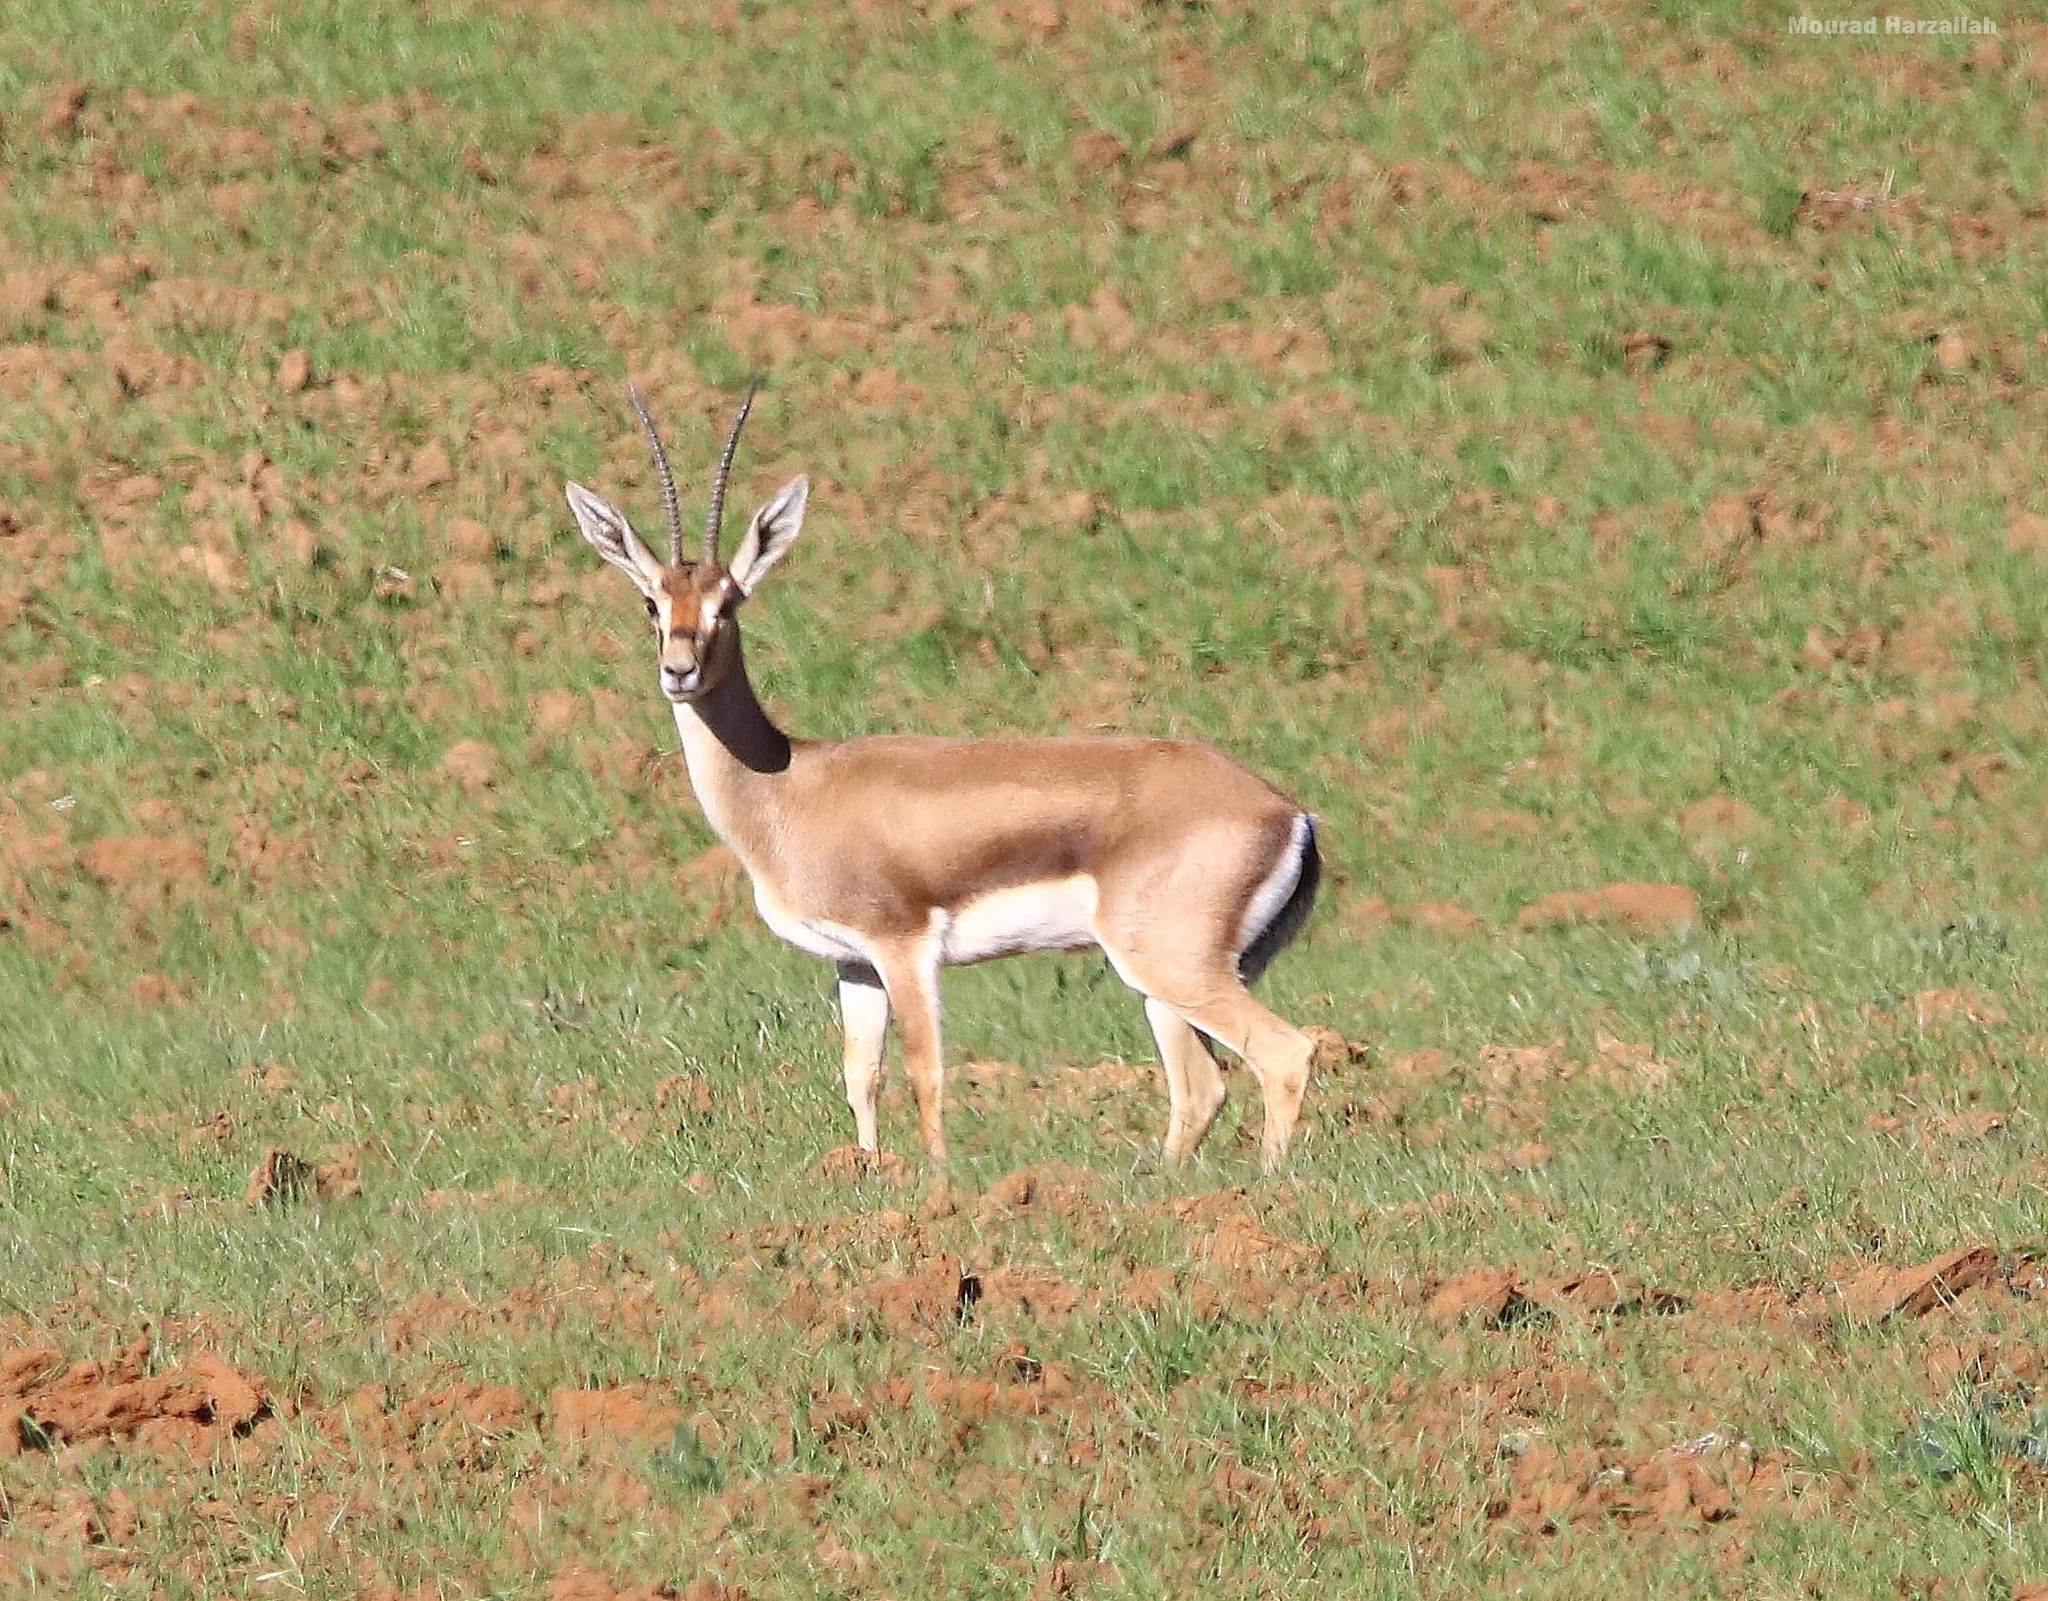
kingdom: Animalia
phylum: Chordata
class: Mammalia
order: Artiodactyla
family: Bovidae
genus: Gazella
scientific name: Gazella cuvieri
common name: Cuvier's gazelle
